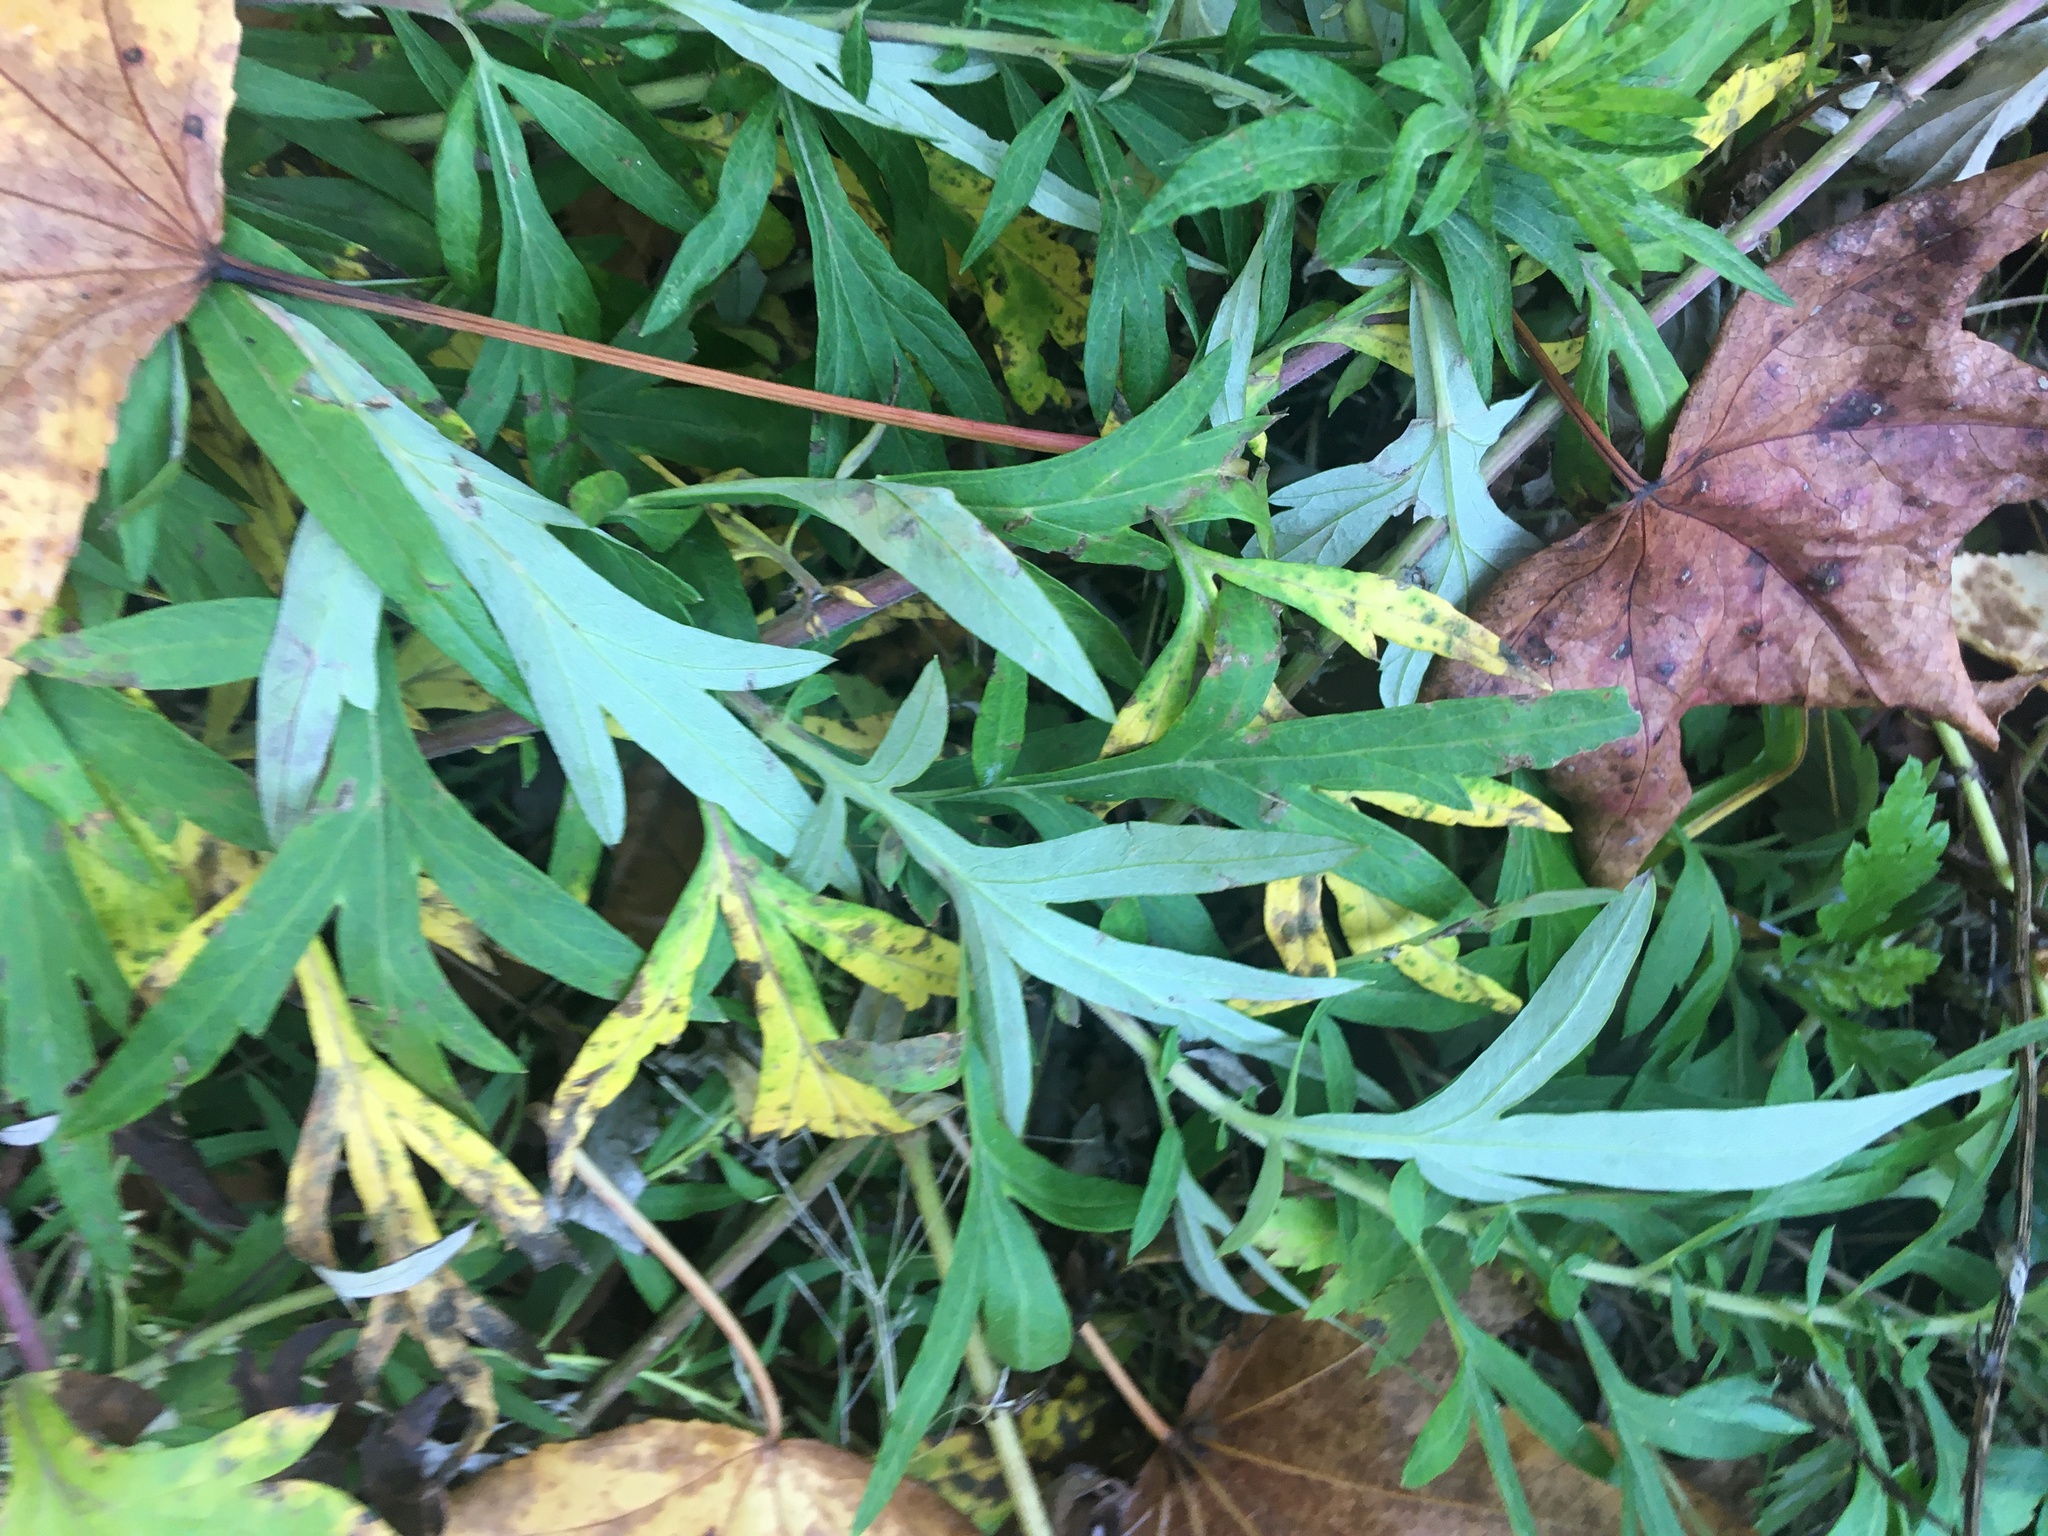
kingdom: Plantae
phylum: Tracheophyta
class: Magnoliopsida
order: Asterales
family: Asteraceae
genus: Artemisia
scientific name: Artemisia vulgaris
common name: Mugwort
